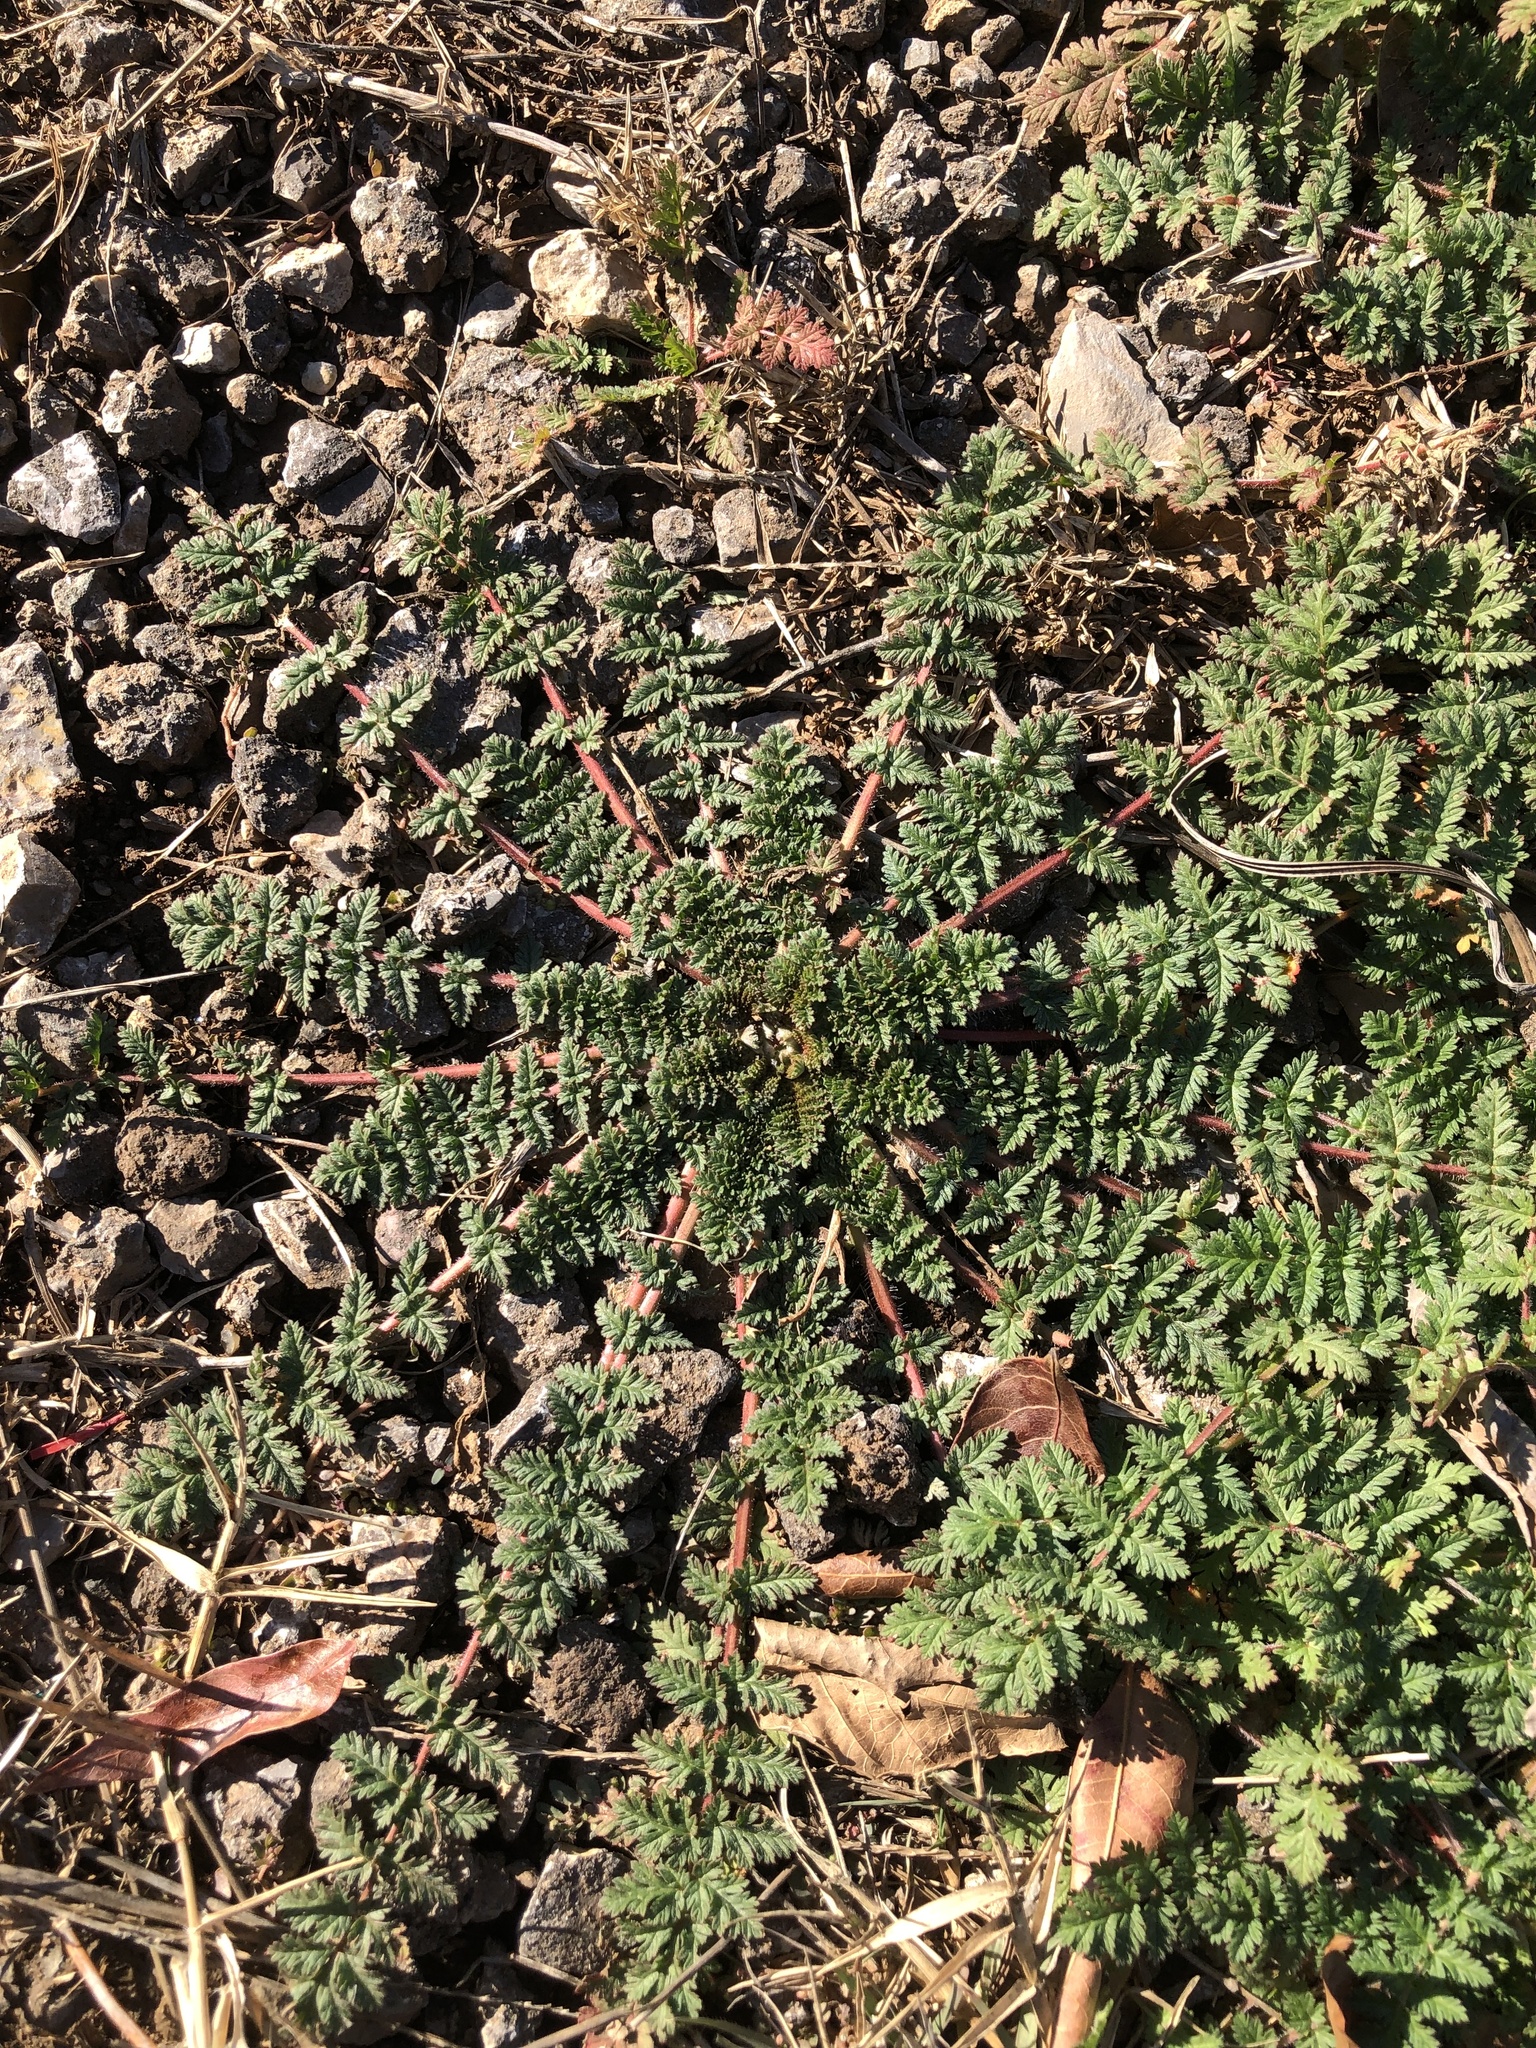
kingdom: Plantae
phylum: Tracheophyta
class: Magnoliopsida
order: Geraniales
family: Geraniaceae
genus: Erodium
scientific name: Erodium cicutarium
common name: Common stork's-bill
